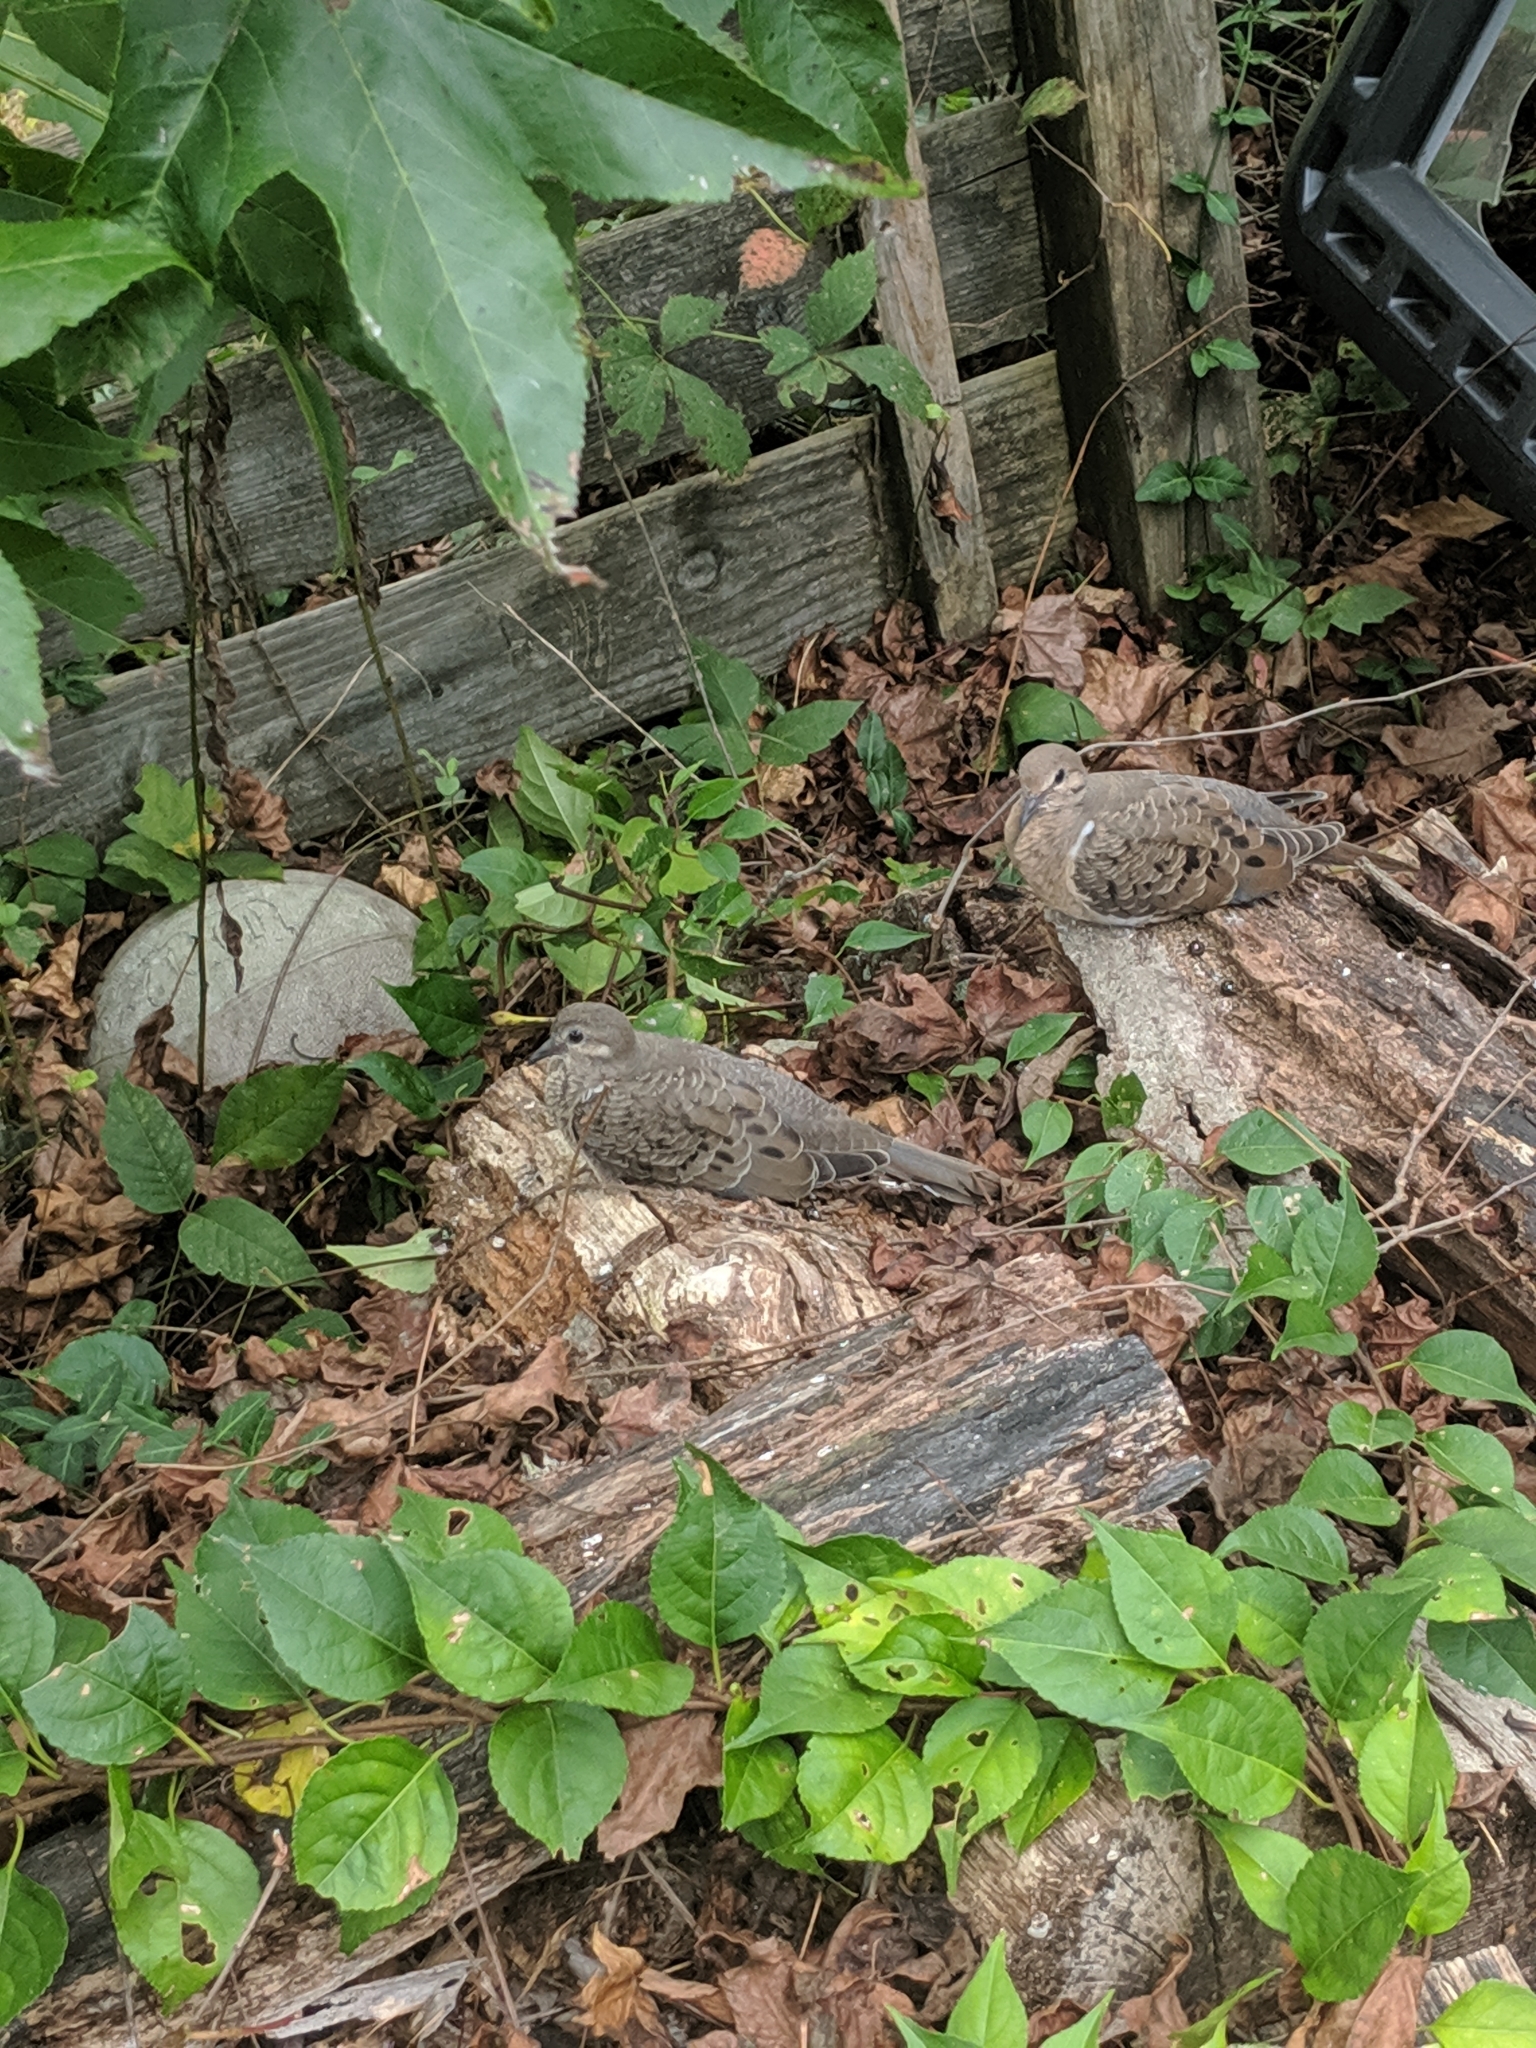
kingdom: Animalia
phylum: Chordata
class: Aves
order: Columbiformes
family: Columbidae
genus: Zenaida
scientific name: Zenaida macroura
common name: Mourning dove
